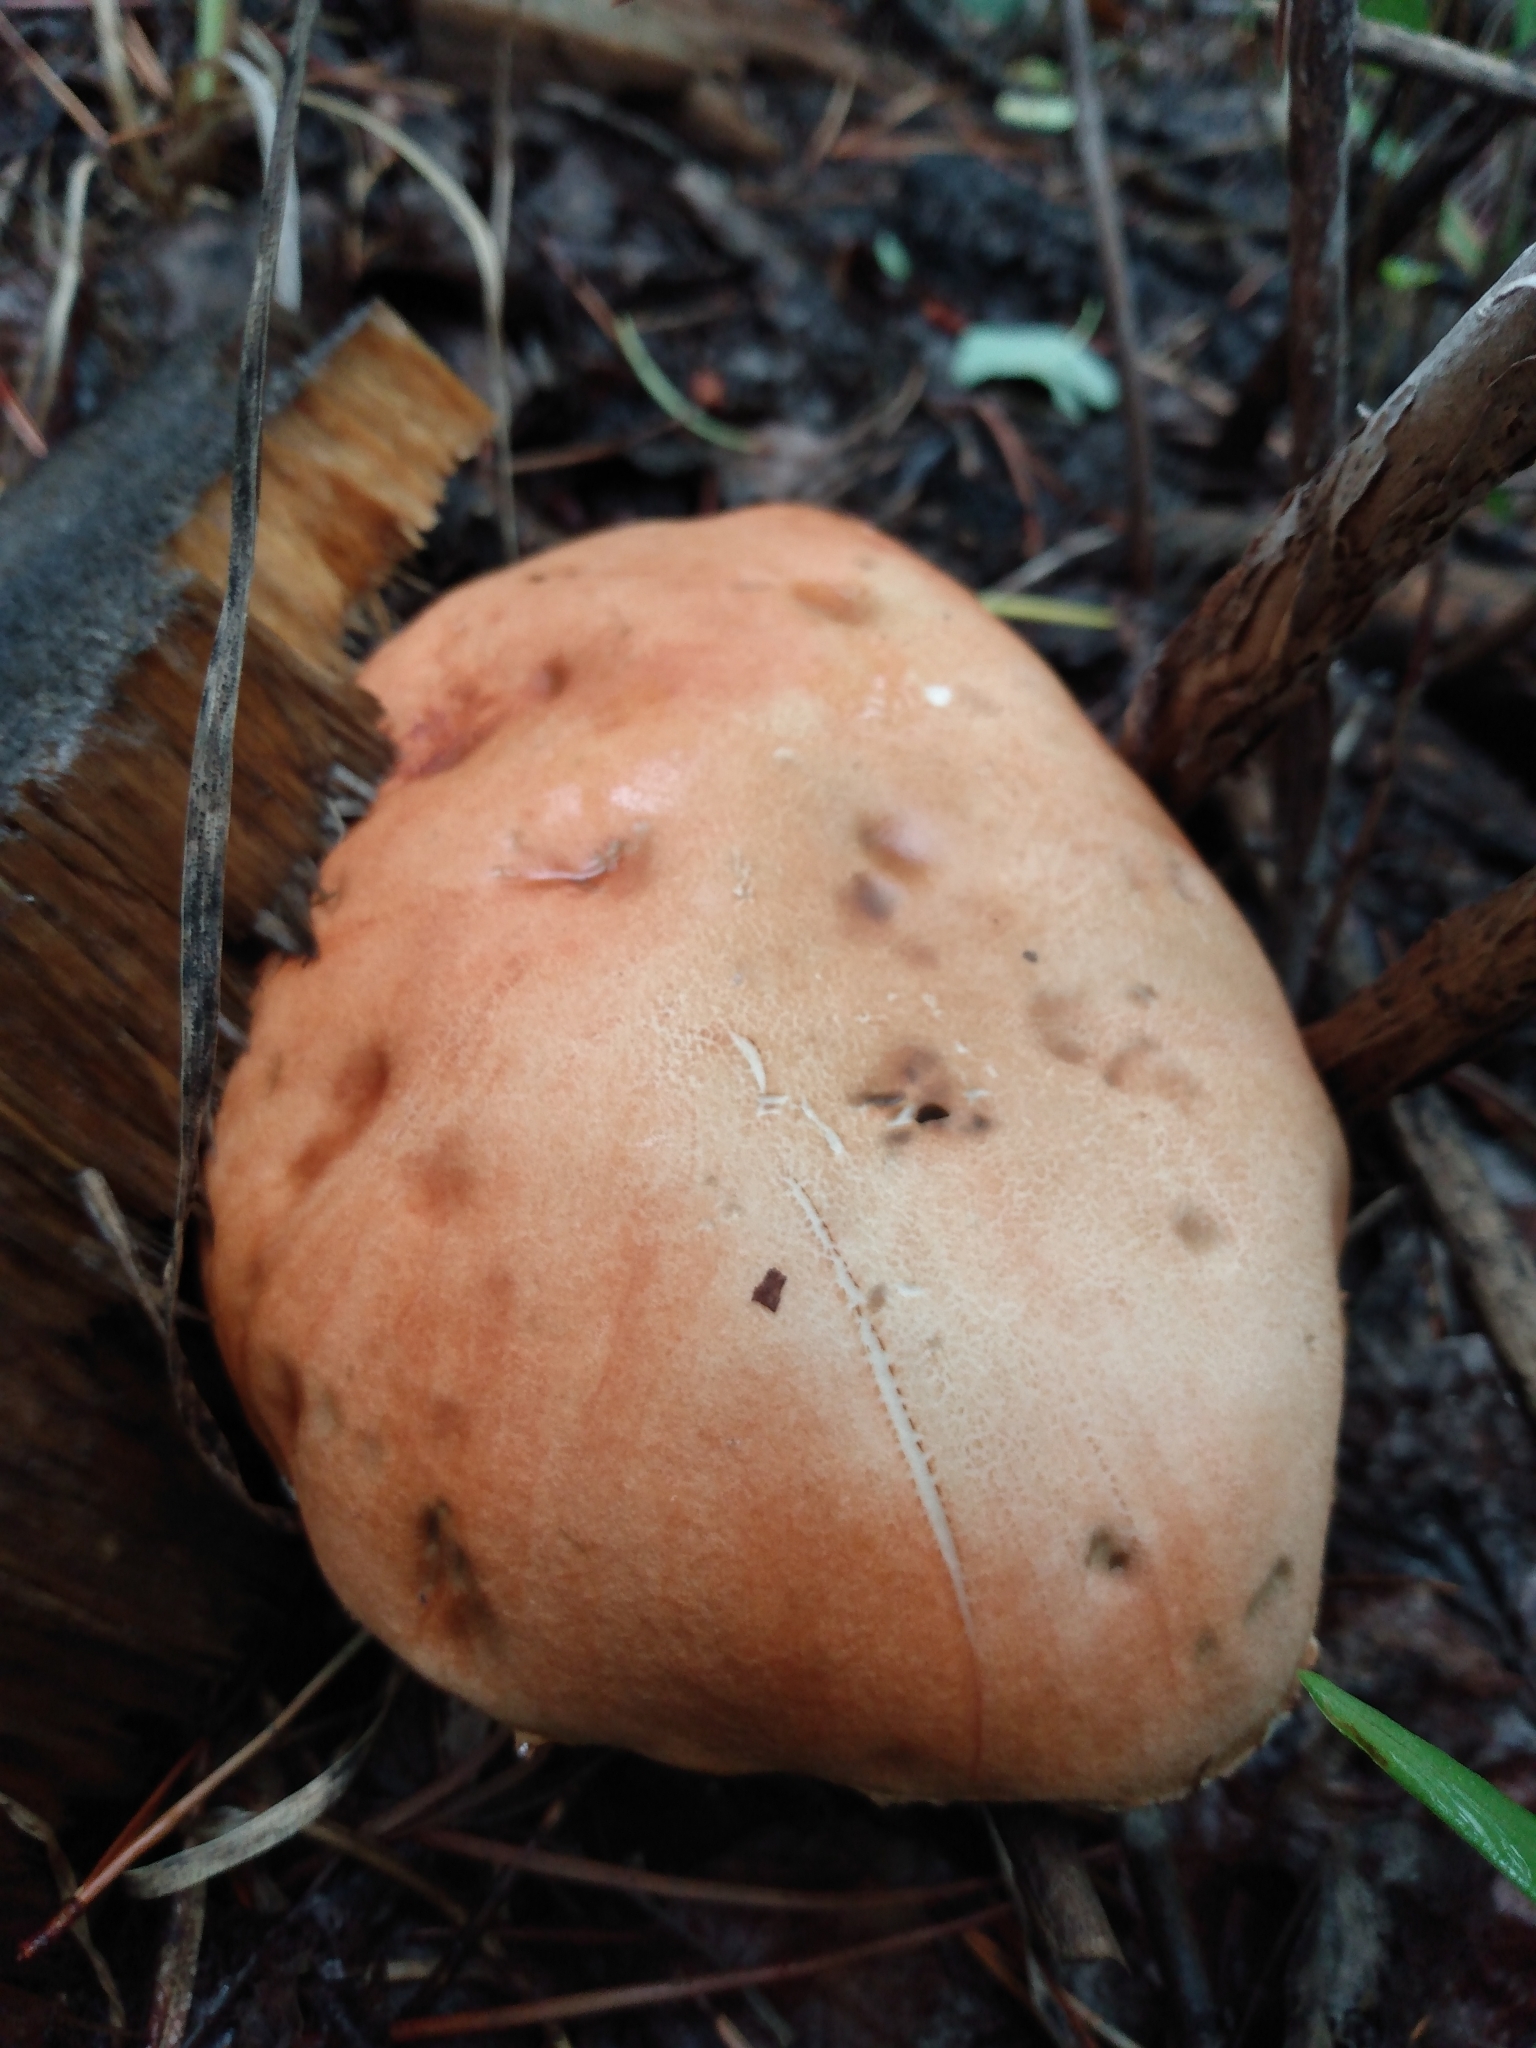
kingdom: Fungi
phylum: Basidiomycota
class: Agaricomycetes
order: Boletales
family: Boletaceae
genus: Leccinum
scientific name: Leccinum insigne
